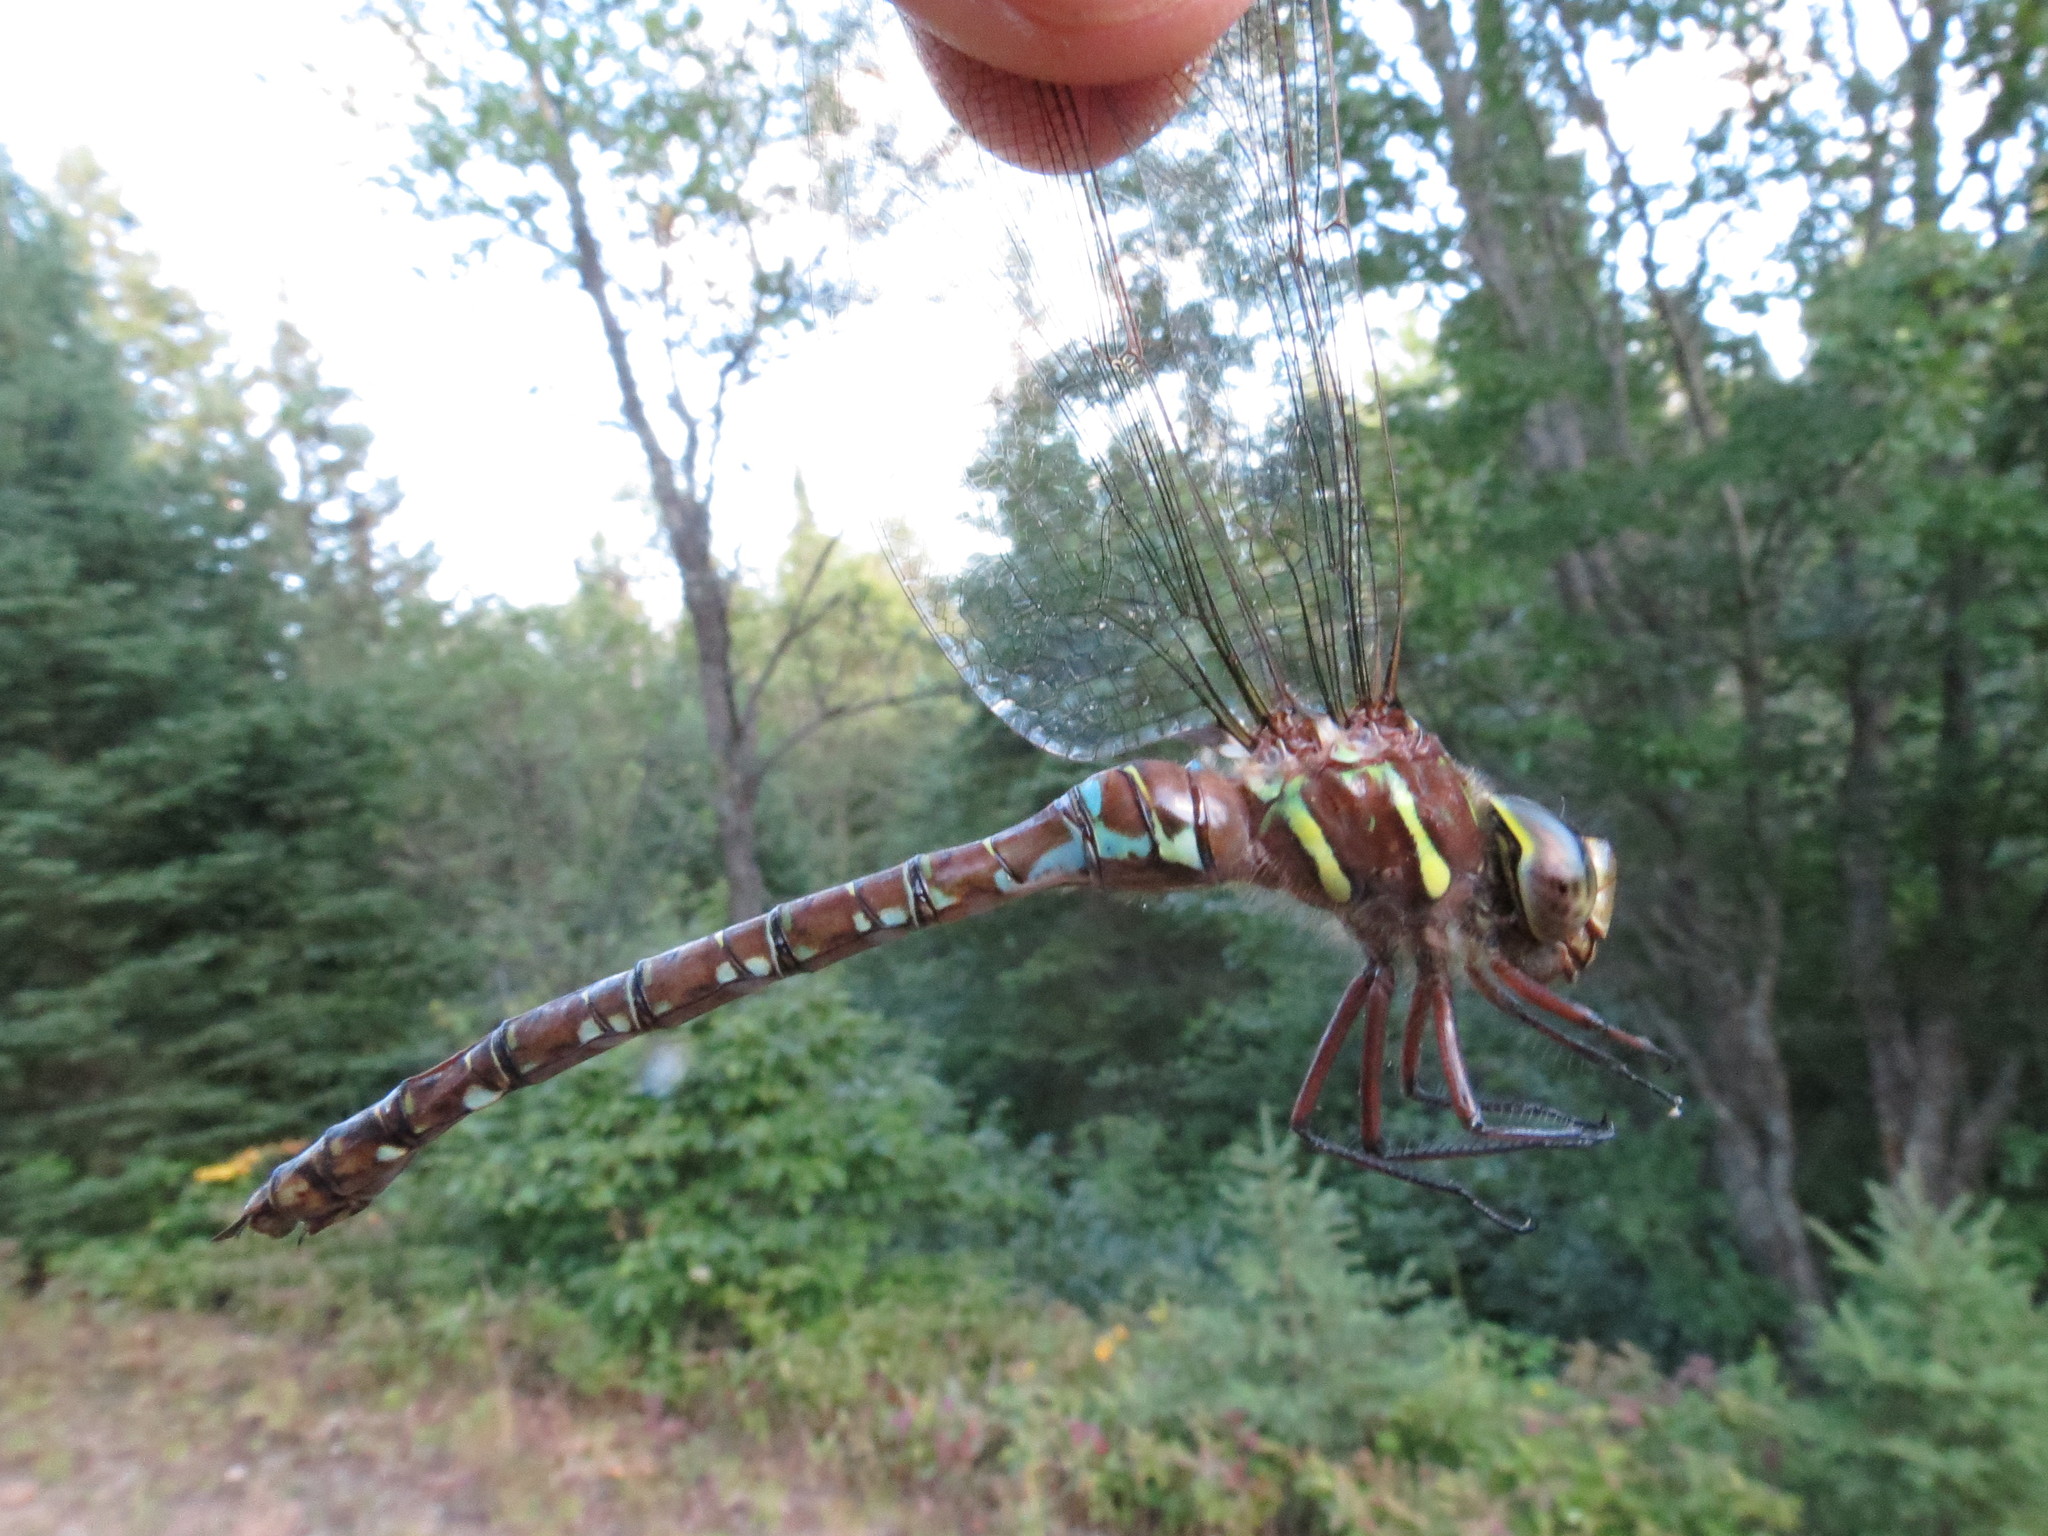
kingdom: Animalia
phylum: Arthropoda
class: Insecta
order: Odonata
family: Aeshnidae
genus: Aeshna
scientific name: Aeshna umbrosa
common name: Shadow darner
